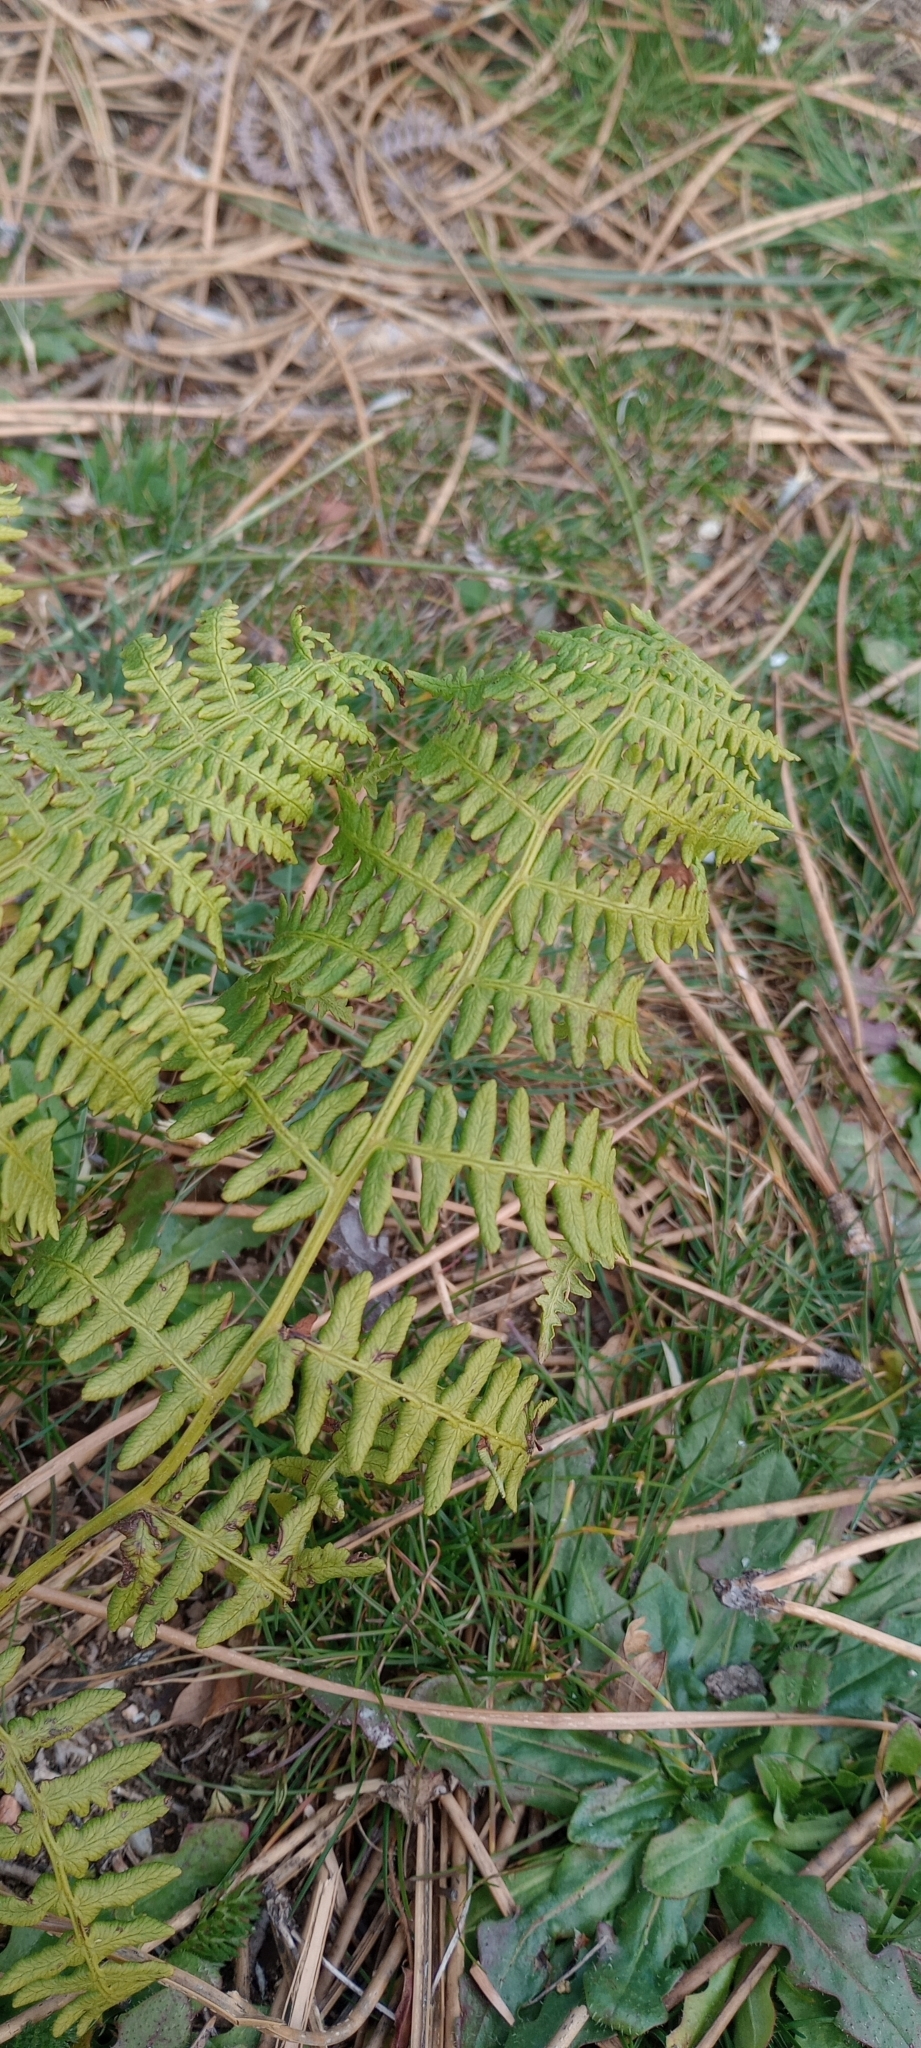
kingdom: Plantae
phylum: Tracheophyta
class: Polypodiopsida
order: Polypodiales
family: Dennstaedtiaceae
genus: Pteridium
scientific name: Pteridium aquilinum
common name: Bracken
